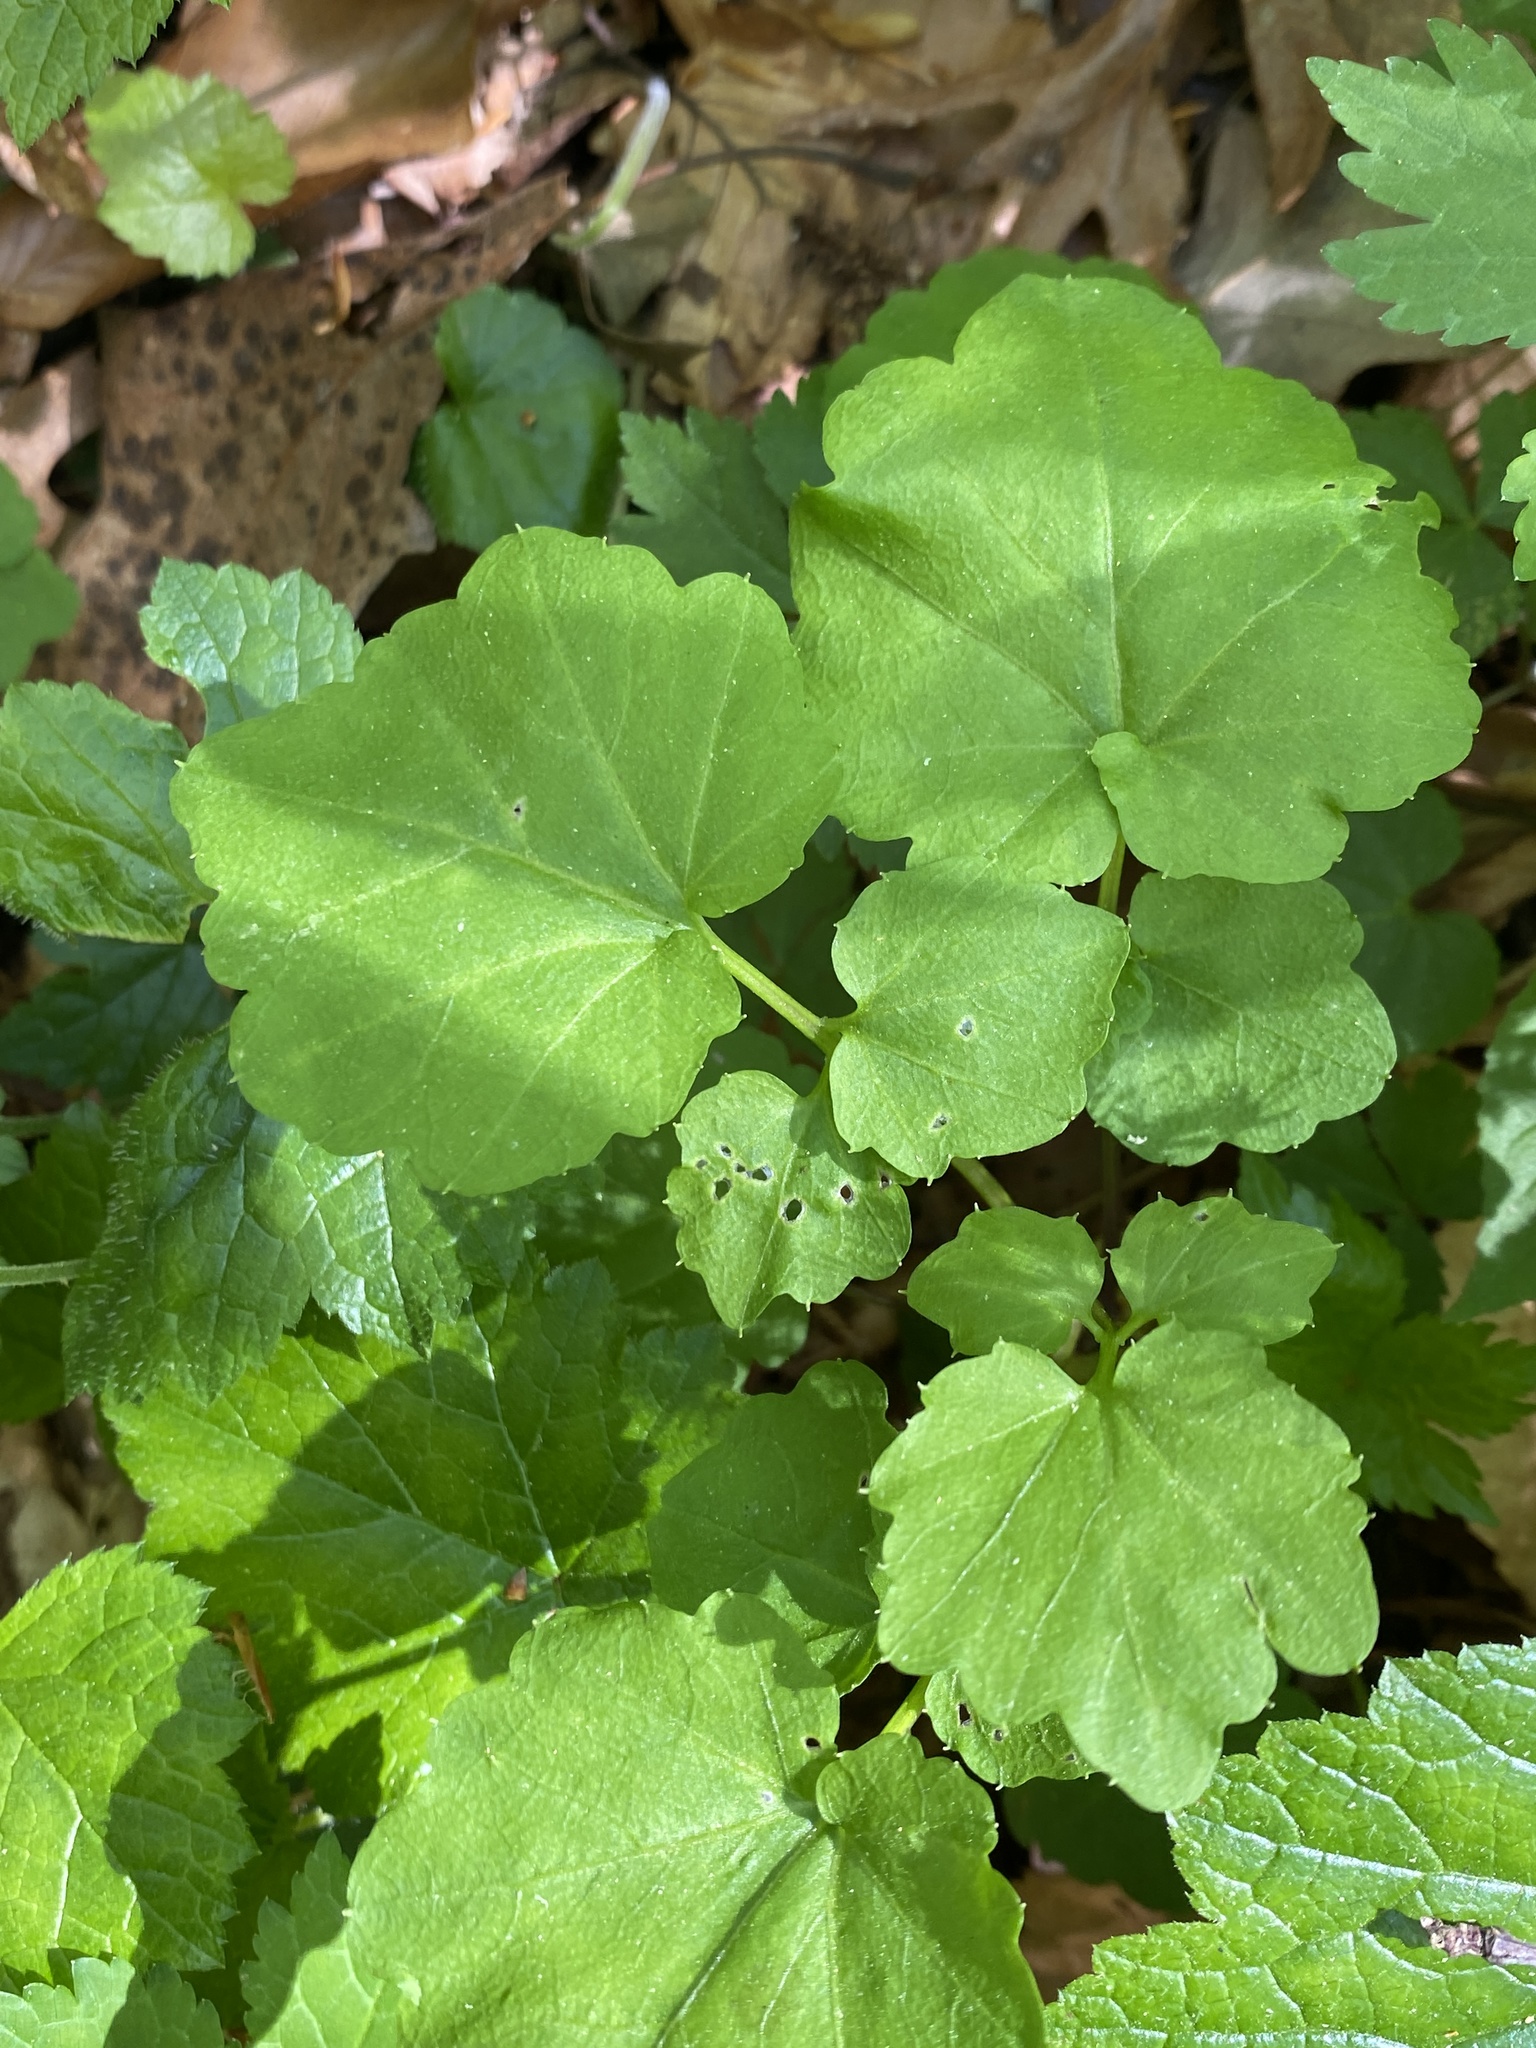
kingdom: Plantae
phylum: Tracheophyta
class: Magnoliopsida
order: Brassicales
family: Brassicaceae
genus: Cardamine
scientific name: Cardamine flagellifera
